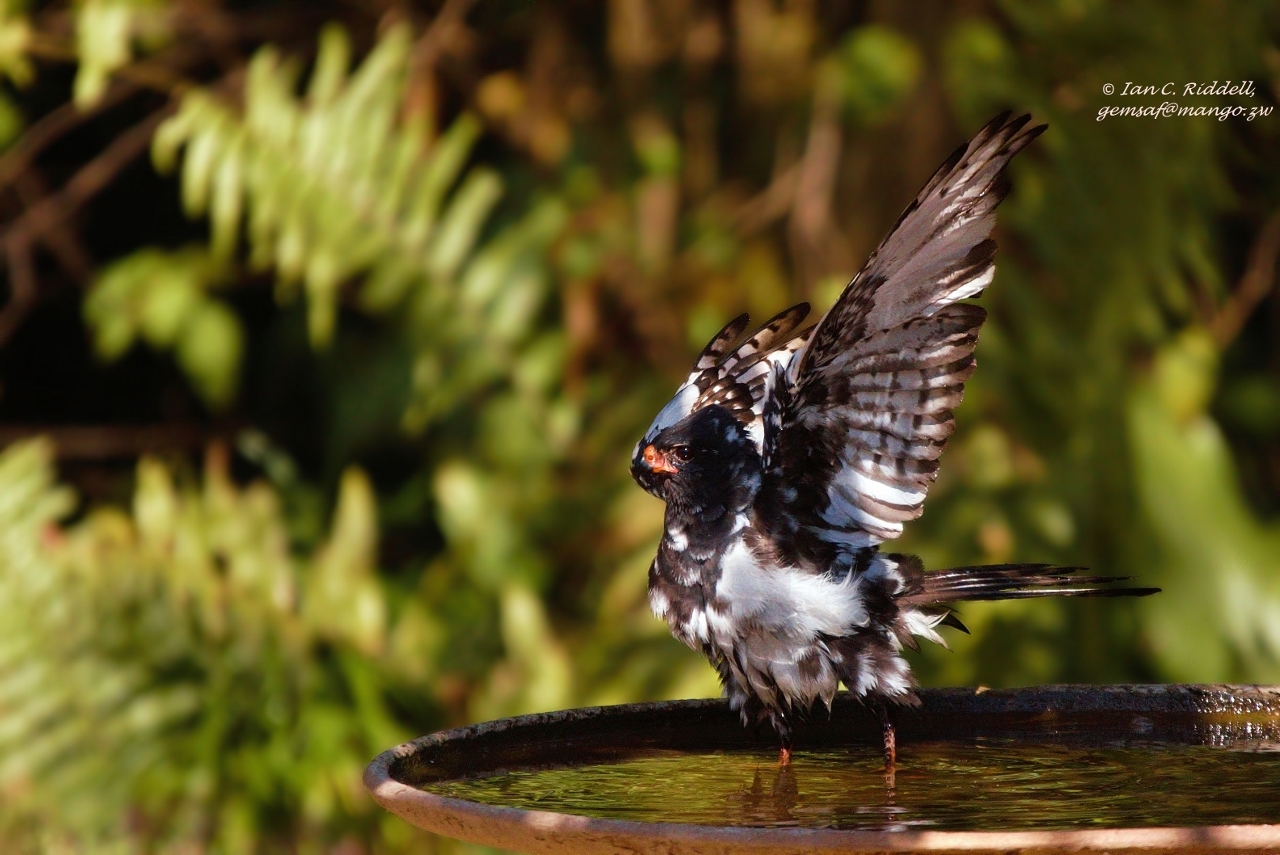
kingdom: Animalia
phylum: Chordata
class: Aves
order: Accipitriformes
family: Accipitridae
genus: Micronisus
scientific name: Micronisus gabar
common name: Gabar goshawk
